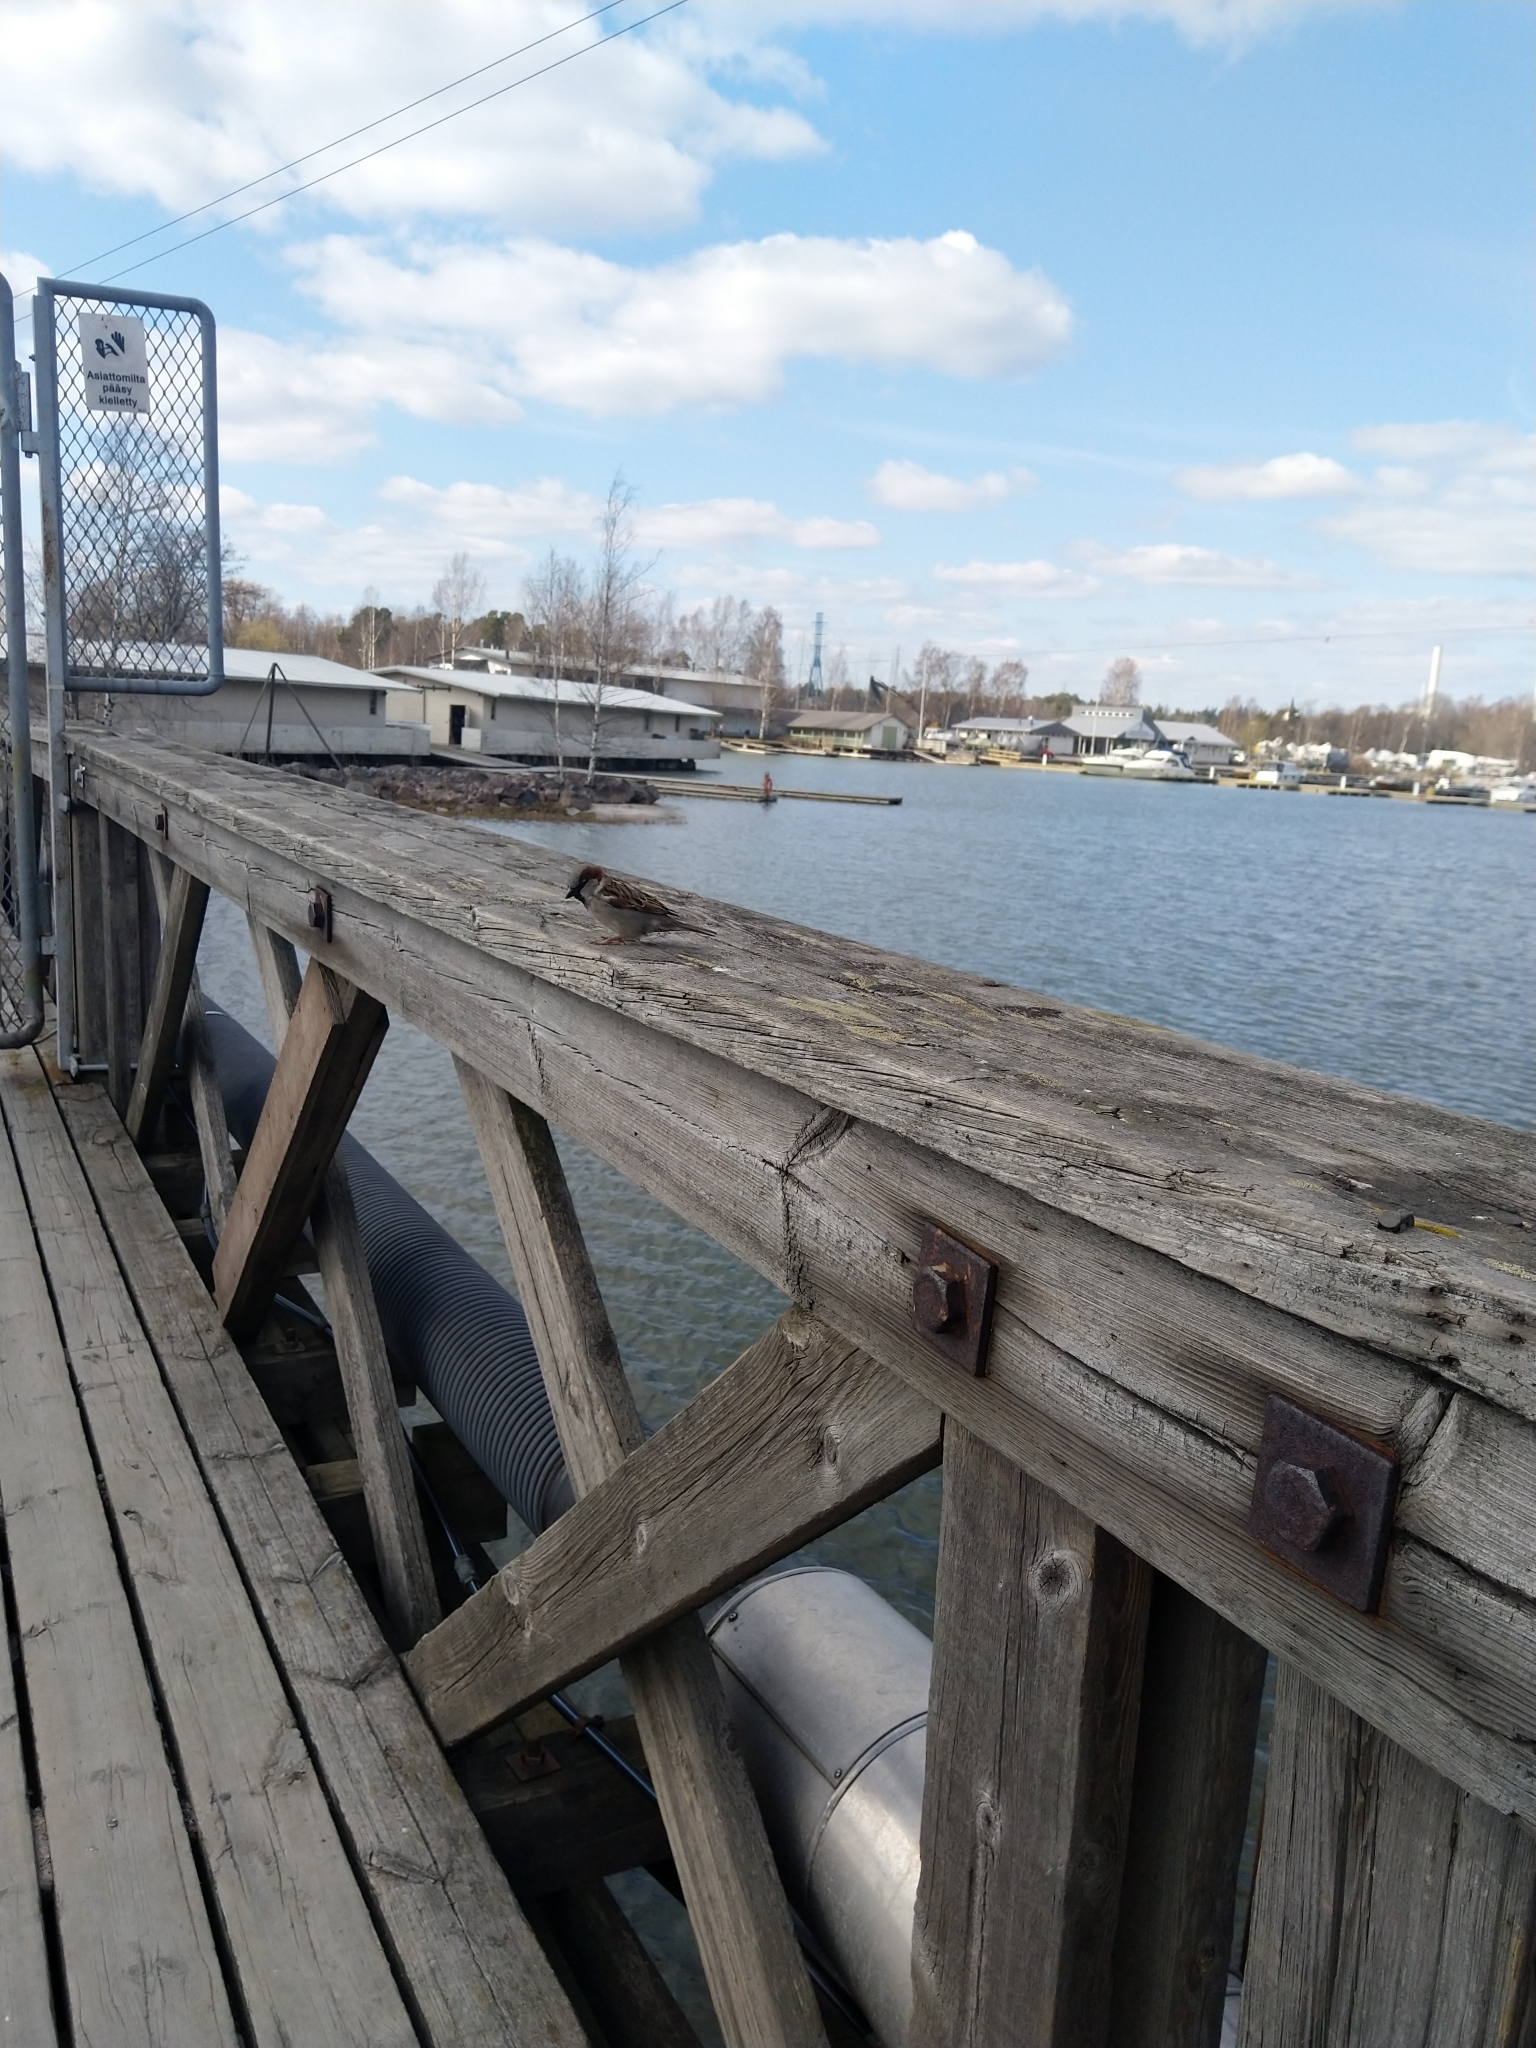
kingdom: Animalia
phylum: Chordata
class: Aves
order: Passeriformes
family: Passeridae
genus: Passer
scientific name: Passer domesticus
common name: House sparrow
